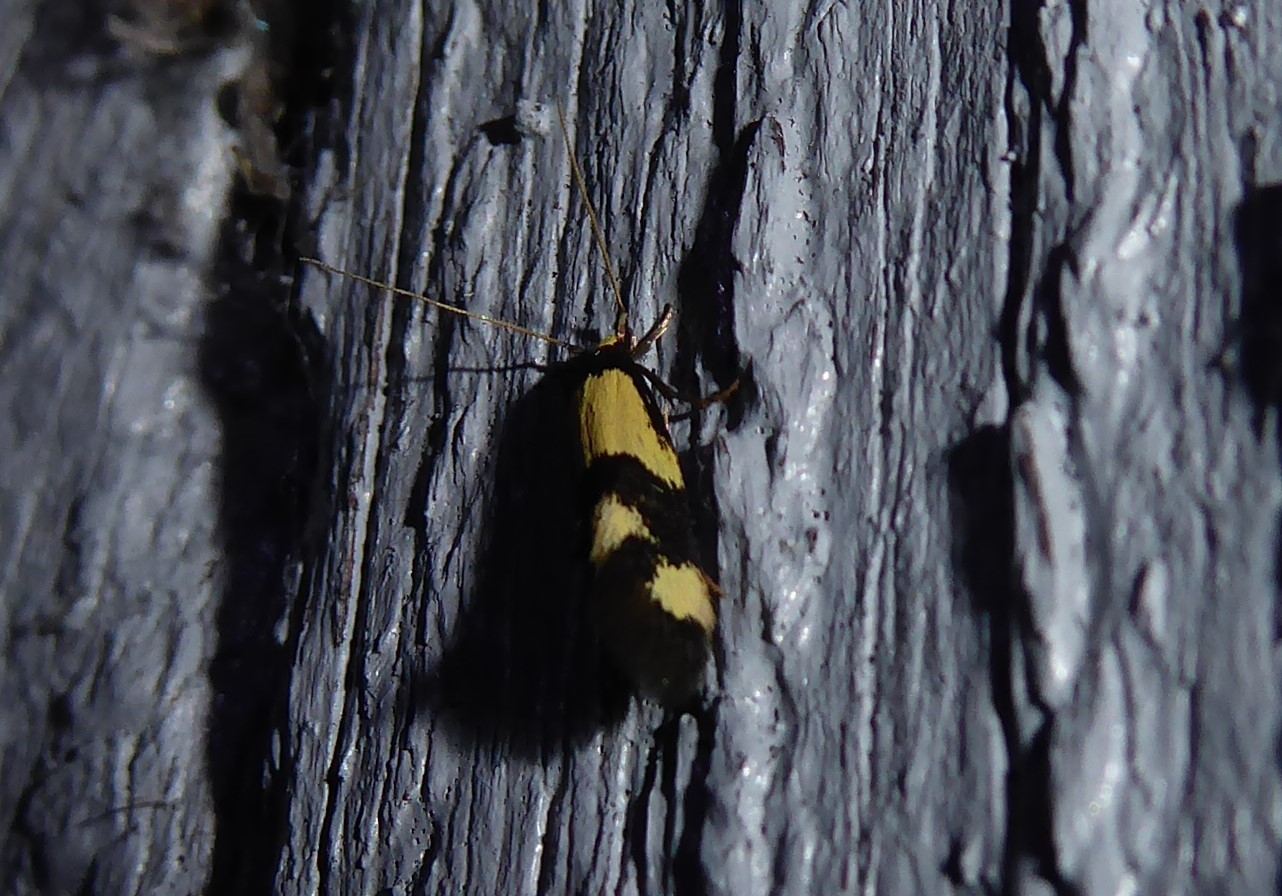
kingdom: Animalia
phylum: Arthropoda
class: Insecta
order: Lepidoptera
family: Tineidae
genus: Opogona
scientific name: Opogona comptella
